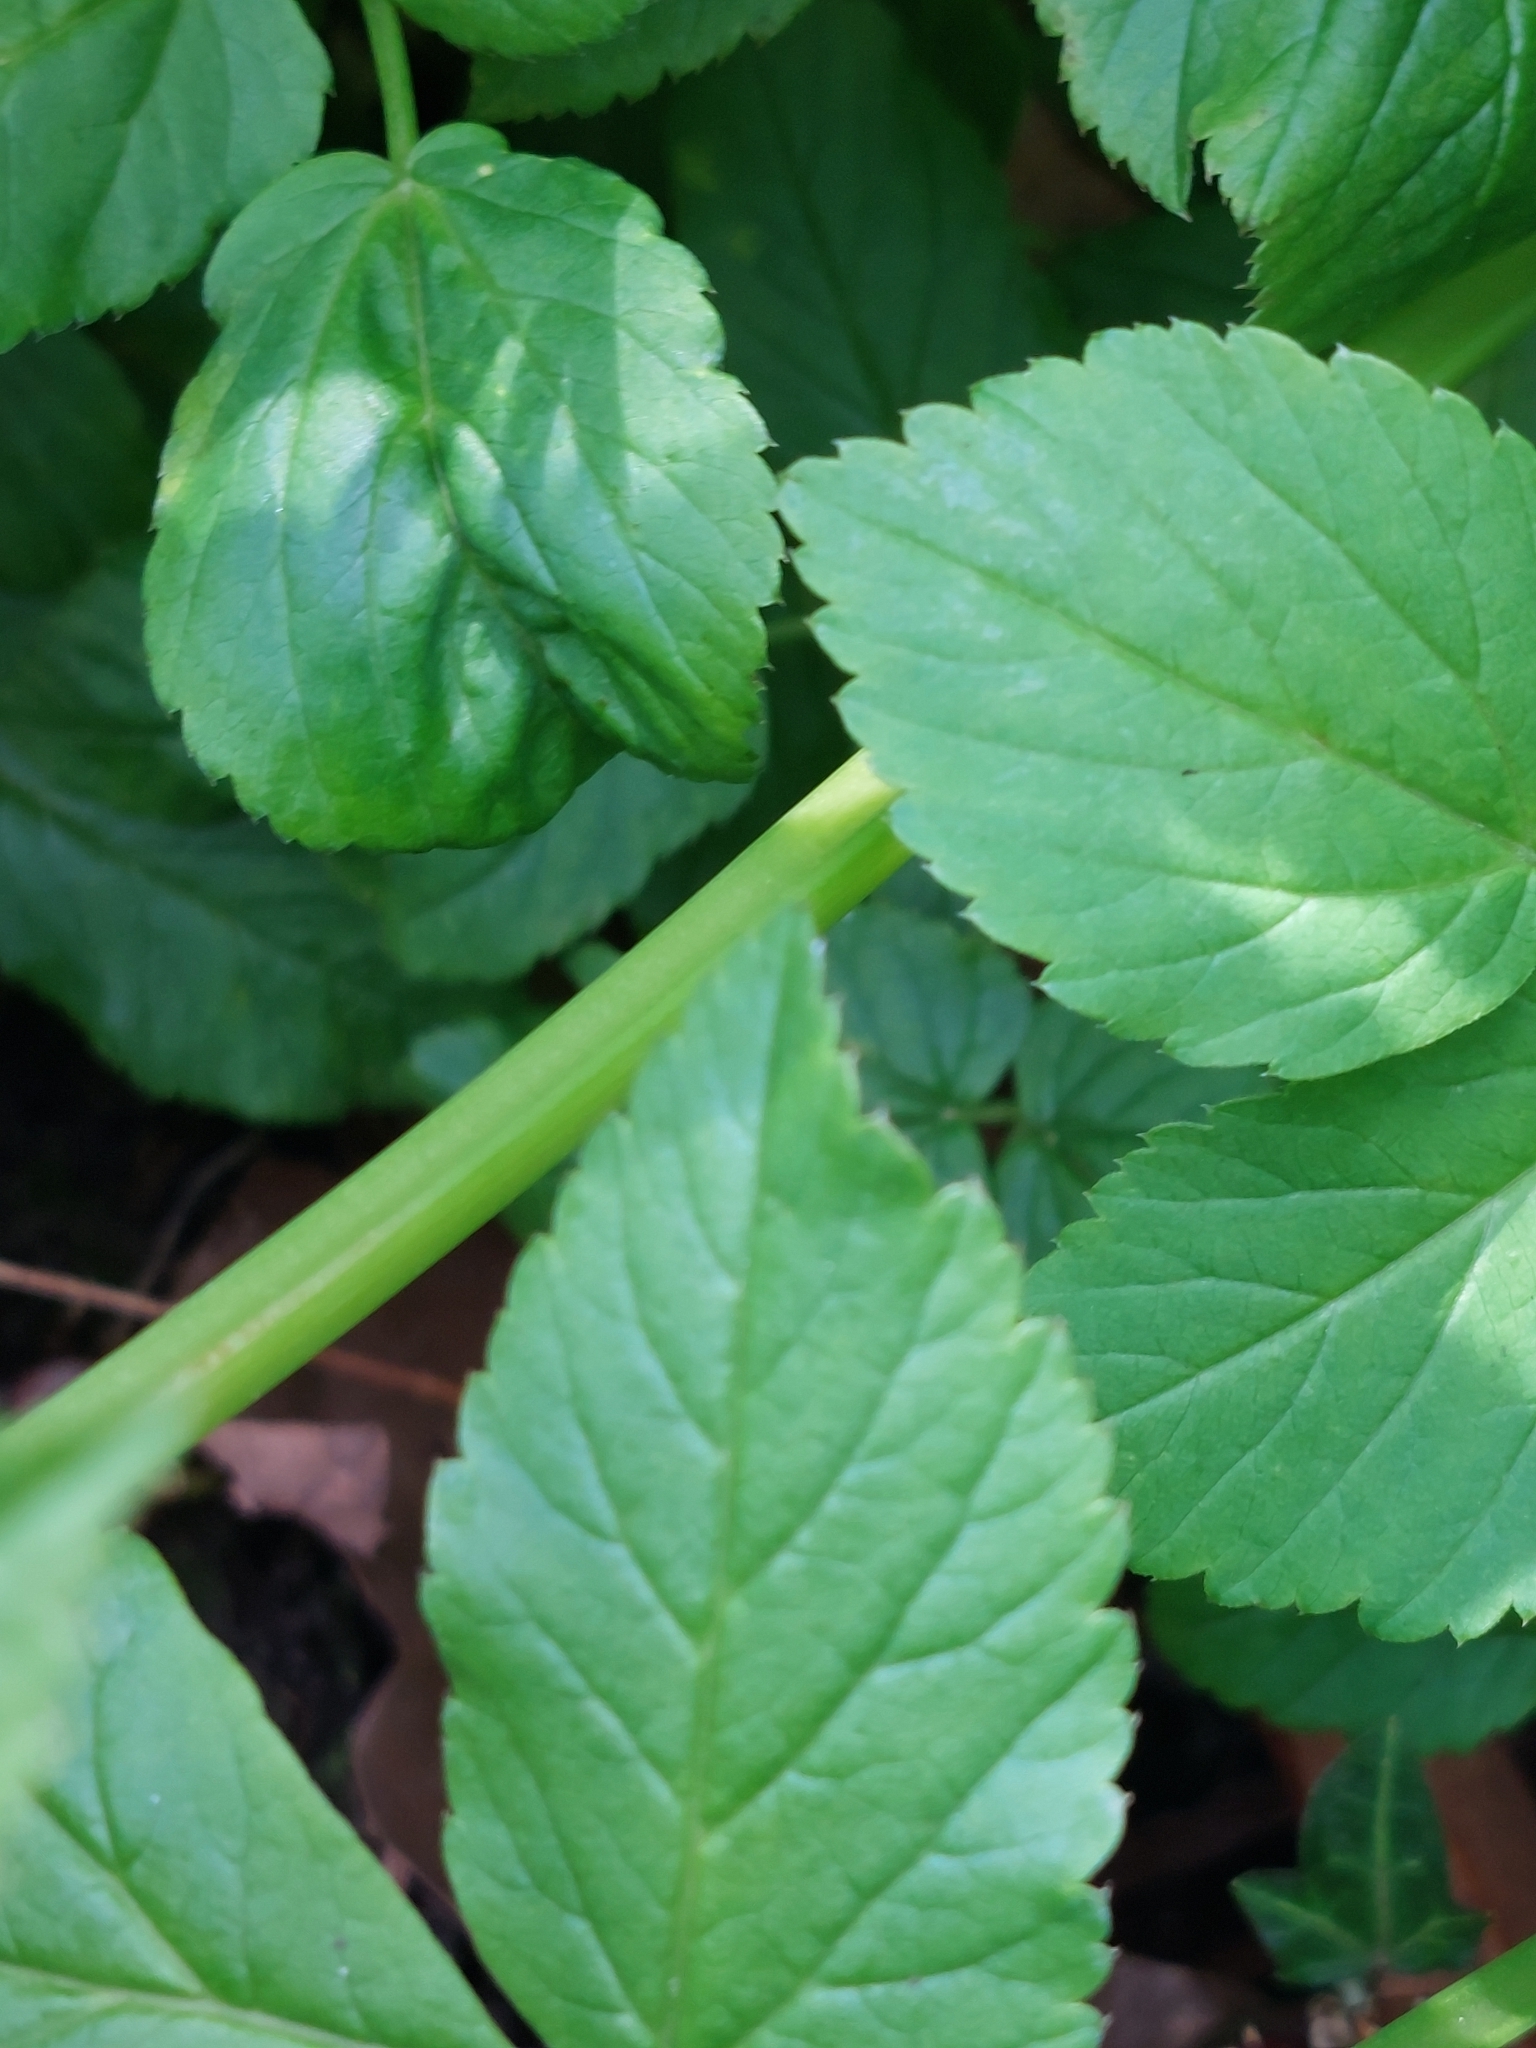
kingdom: Plantae
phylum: Tracheophyta
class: Magnoliopsida
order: Apiales
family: Apiaceae
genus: Aegopodium
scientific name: Aegopodium podagraria
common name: Ground-elder
